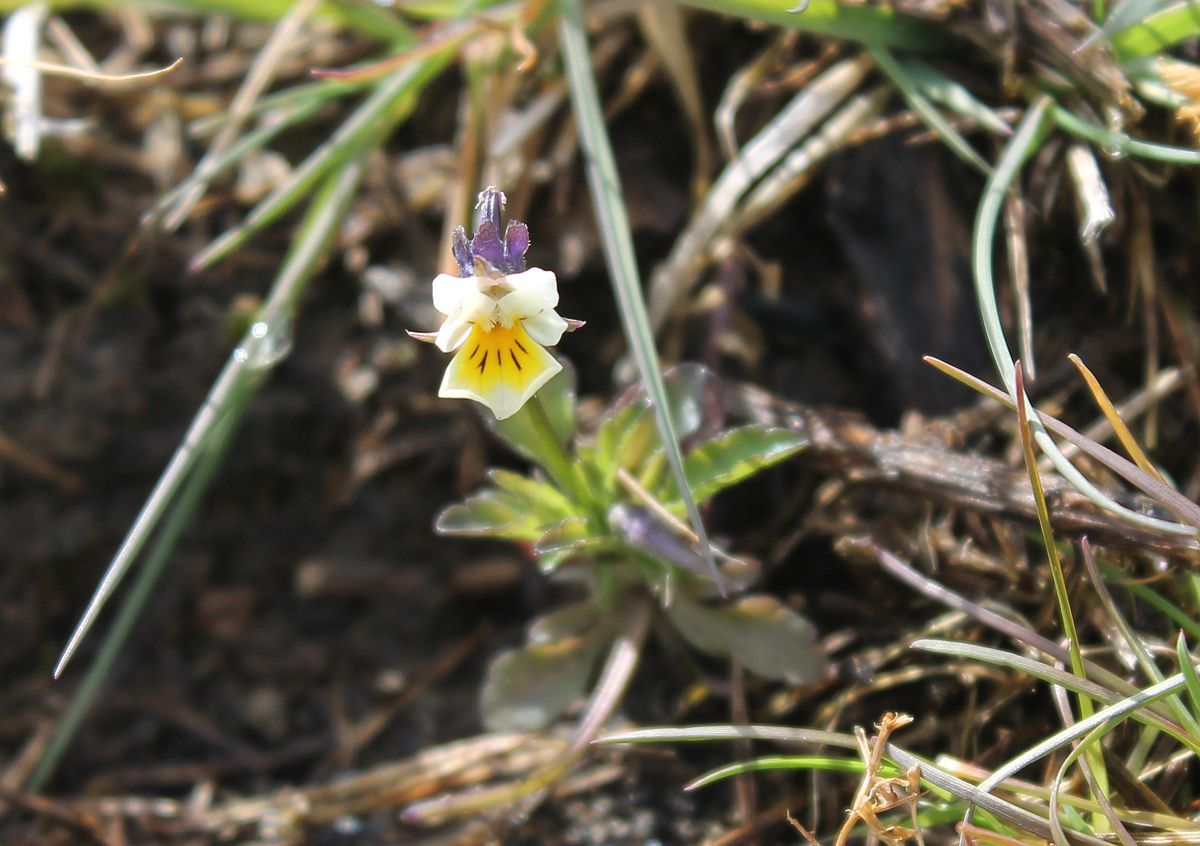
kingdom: Plantae
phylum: Tracheophyta
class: Magnoliopsida
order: Malpighiales
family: Violaceae
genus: Viola
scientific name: Viola arvensis
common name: Field pansy
